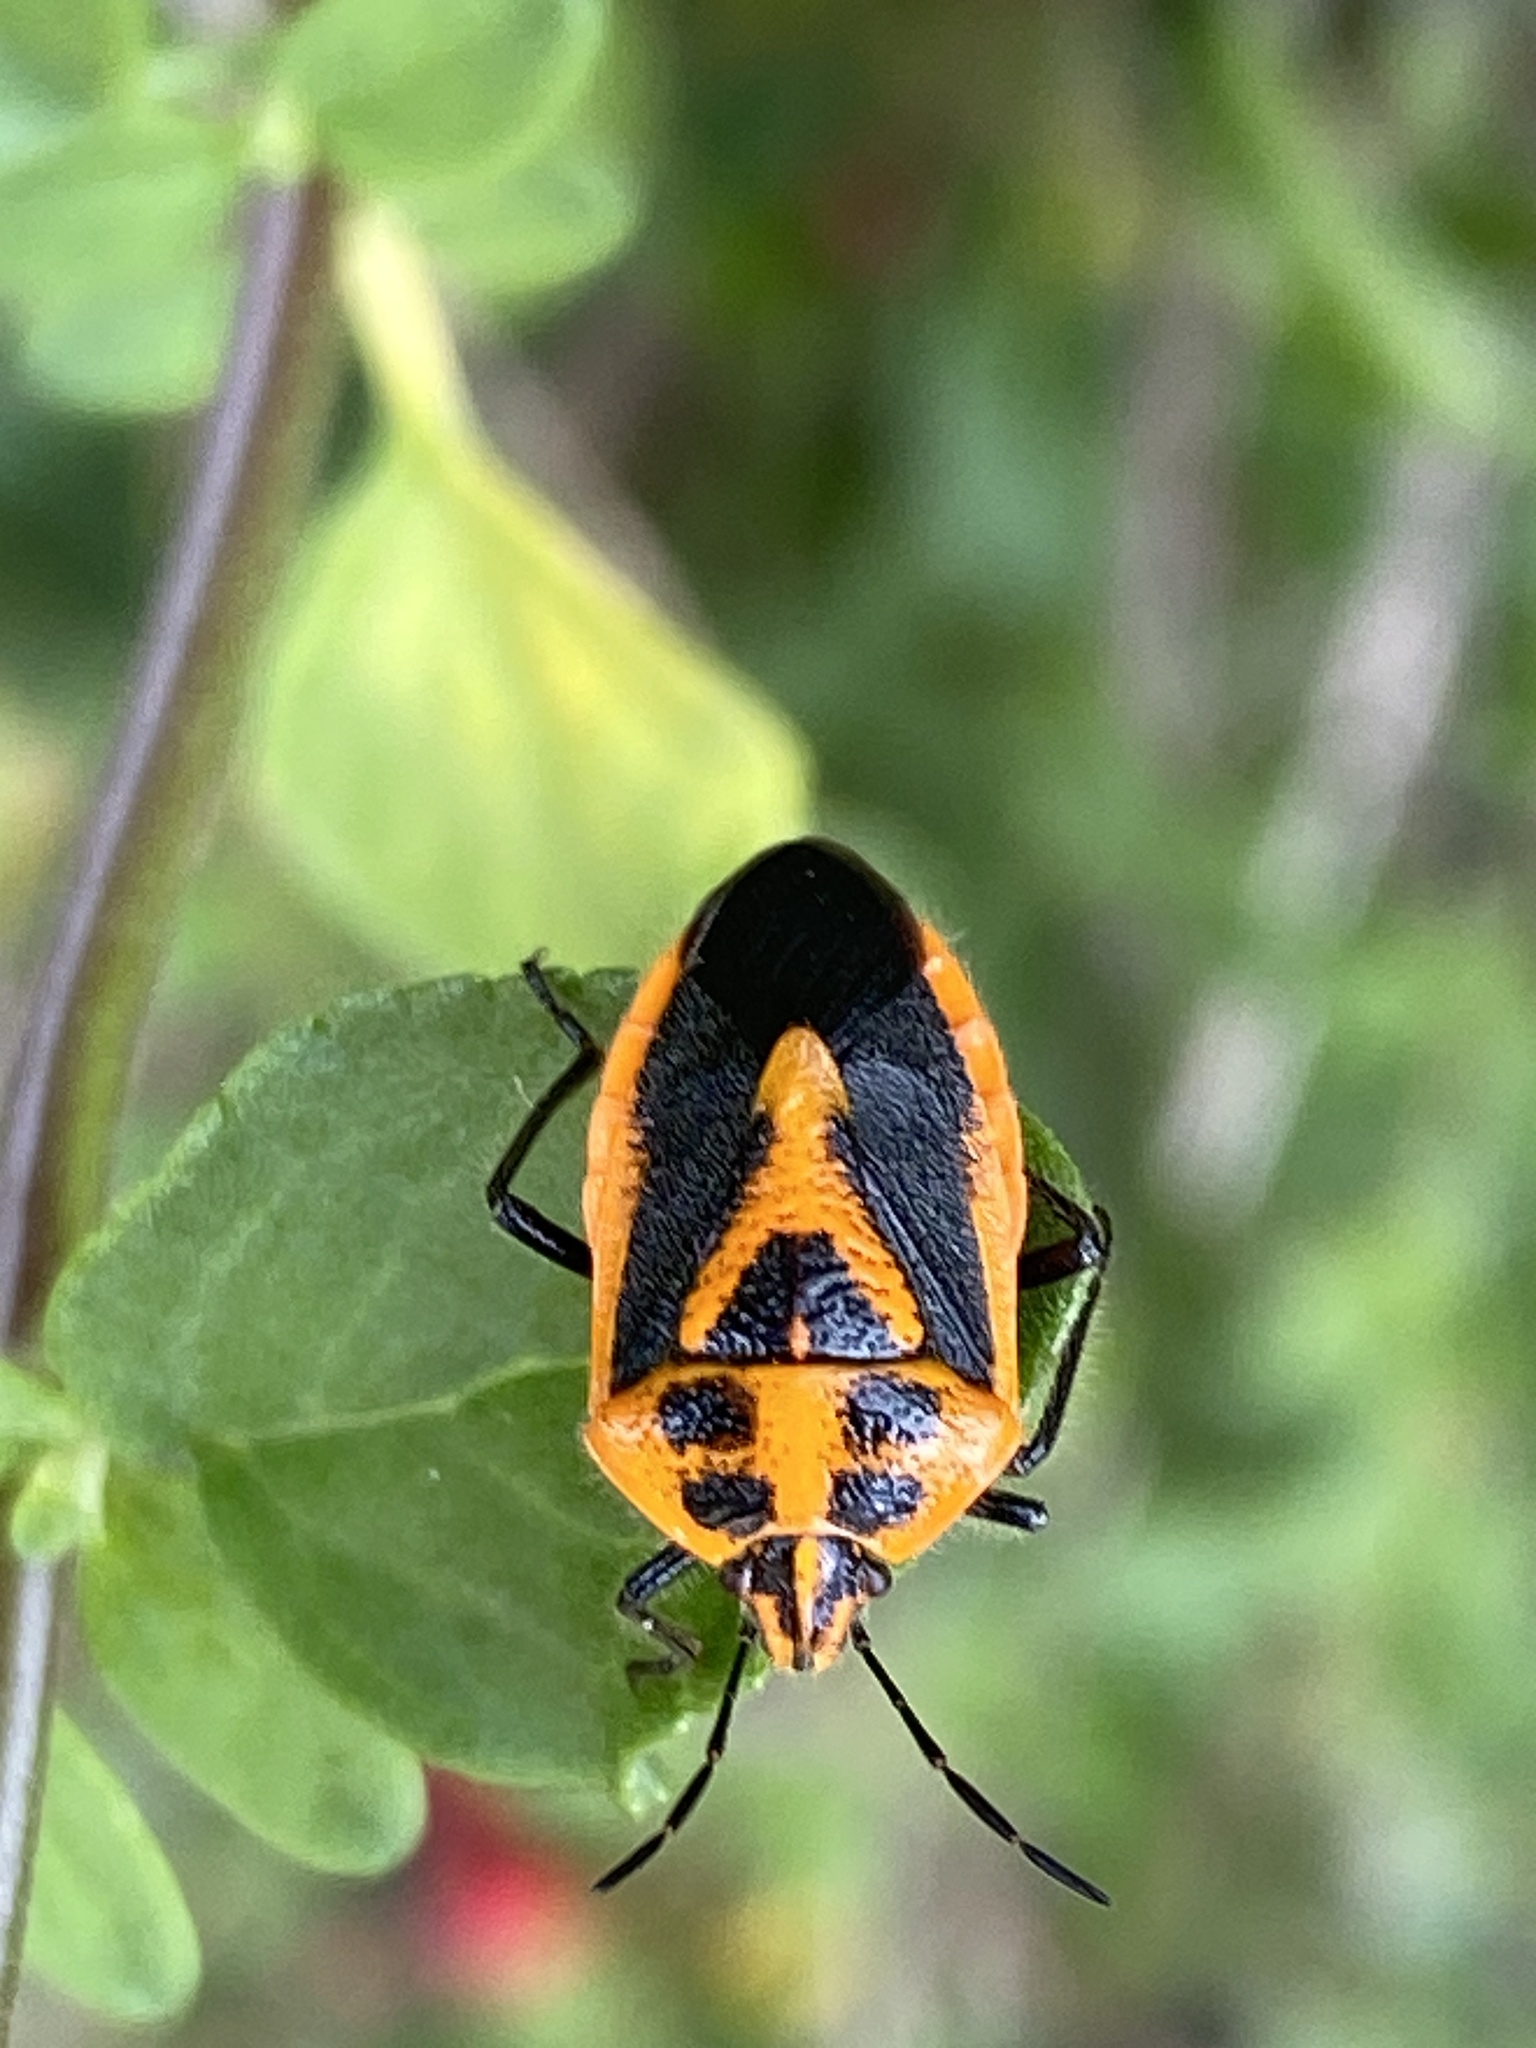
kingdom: Animalia
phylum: Arthropoda
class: Insecta
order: Hemiptera
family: Pentatomidae
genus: Agonoscelis
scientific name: Agonoscelis rutila
